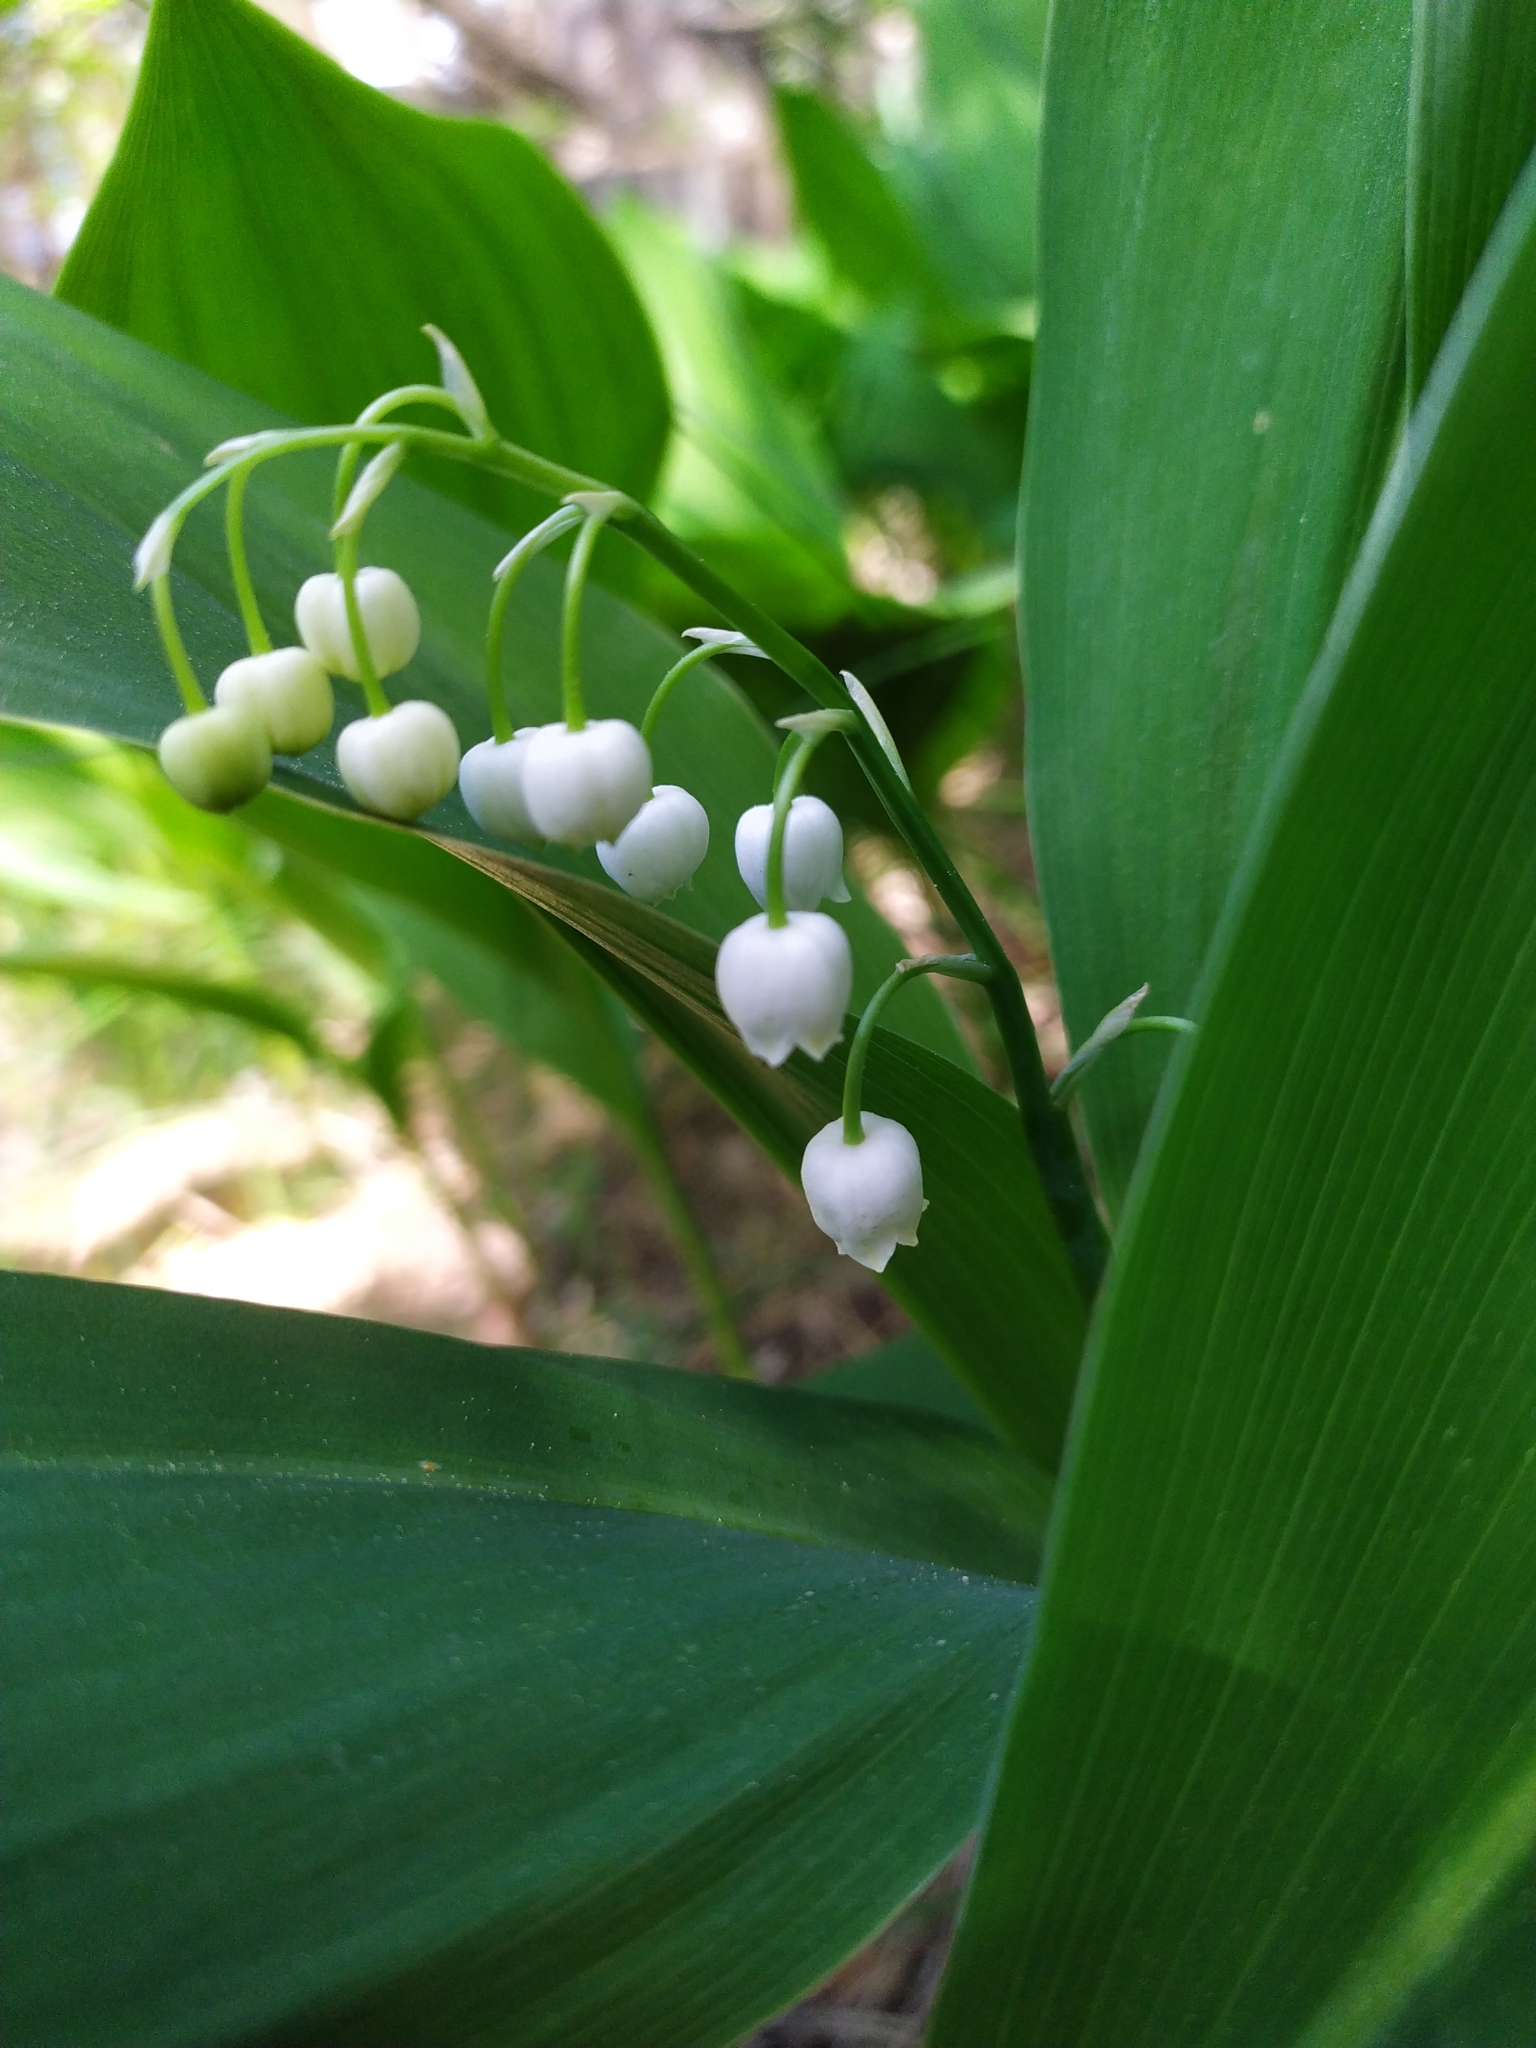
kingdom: Plantae
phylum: Tracheophyta
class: Liliopsida
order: Asparagales
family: Asparagaceae
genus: Convallaria
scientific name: Convallaria majalis
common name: Lily-of-the-valley
